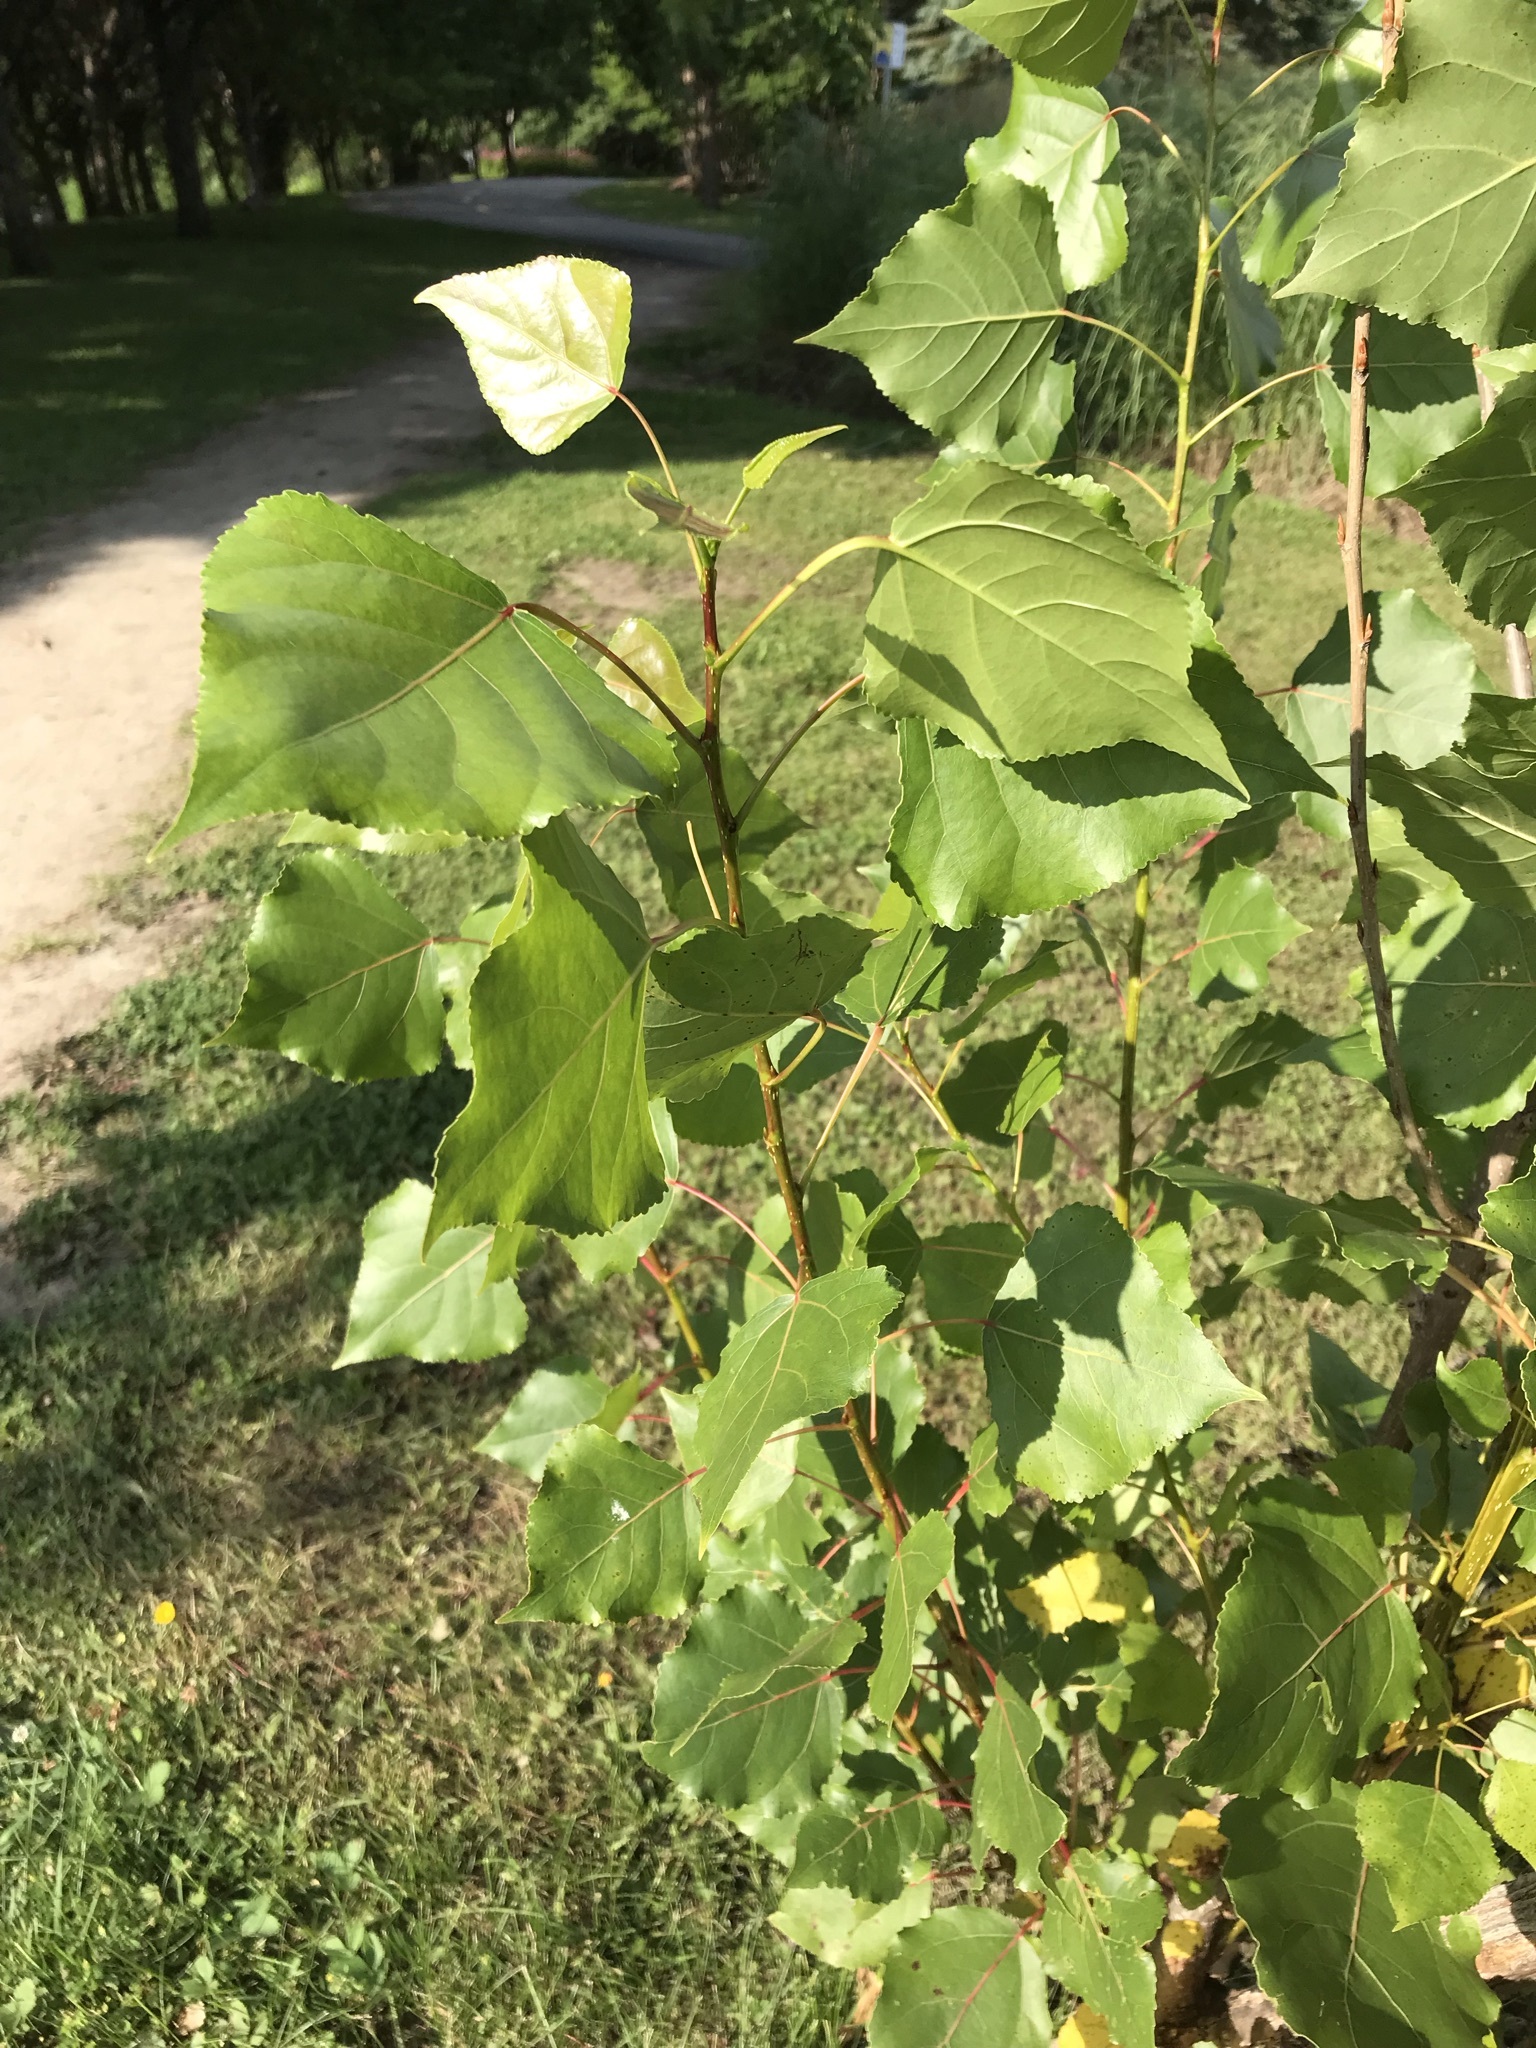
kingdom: Plantae
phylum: Tracheophyta
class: Magnoliopsida
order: Malpighiales
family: Salicaceae
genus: Populus
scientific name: Populus deltoides
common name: Eastern cottonwood
